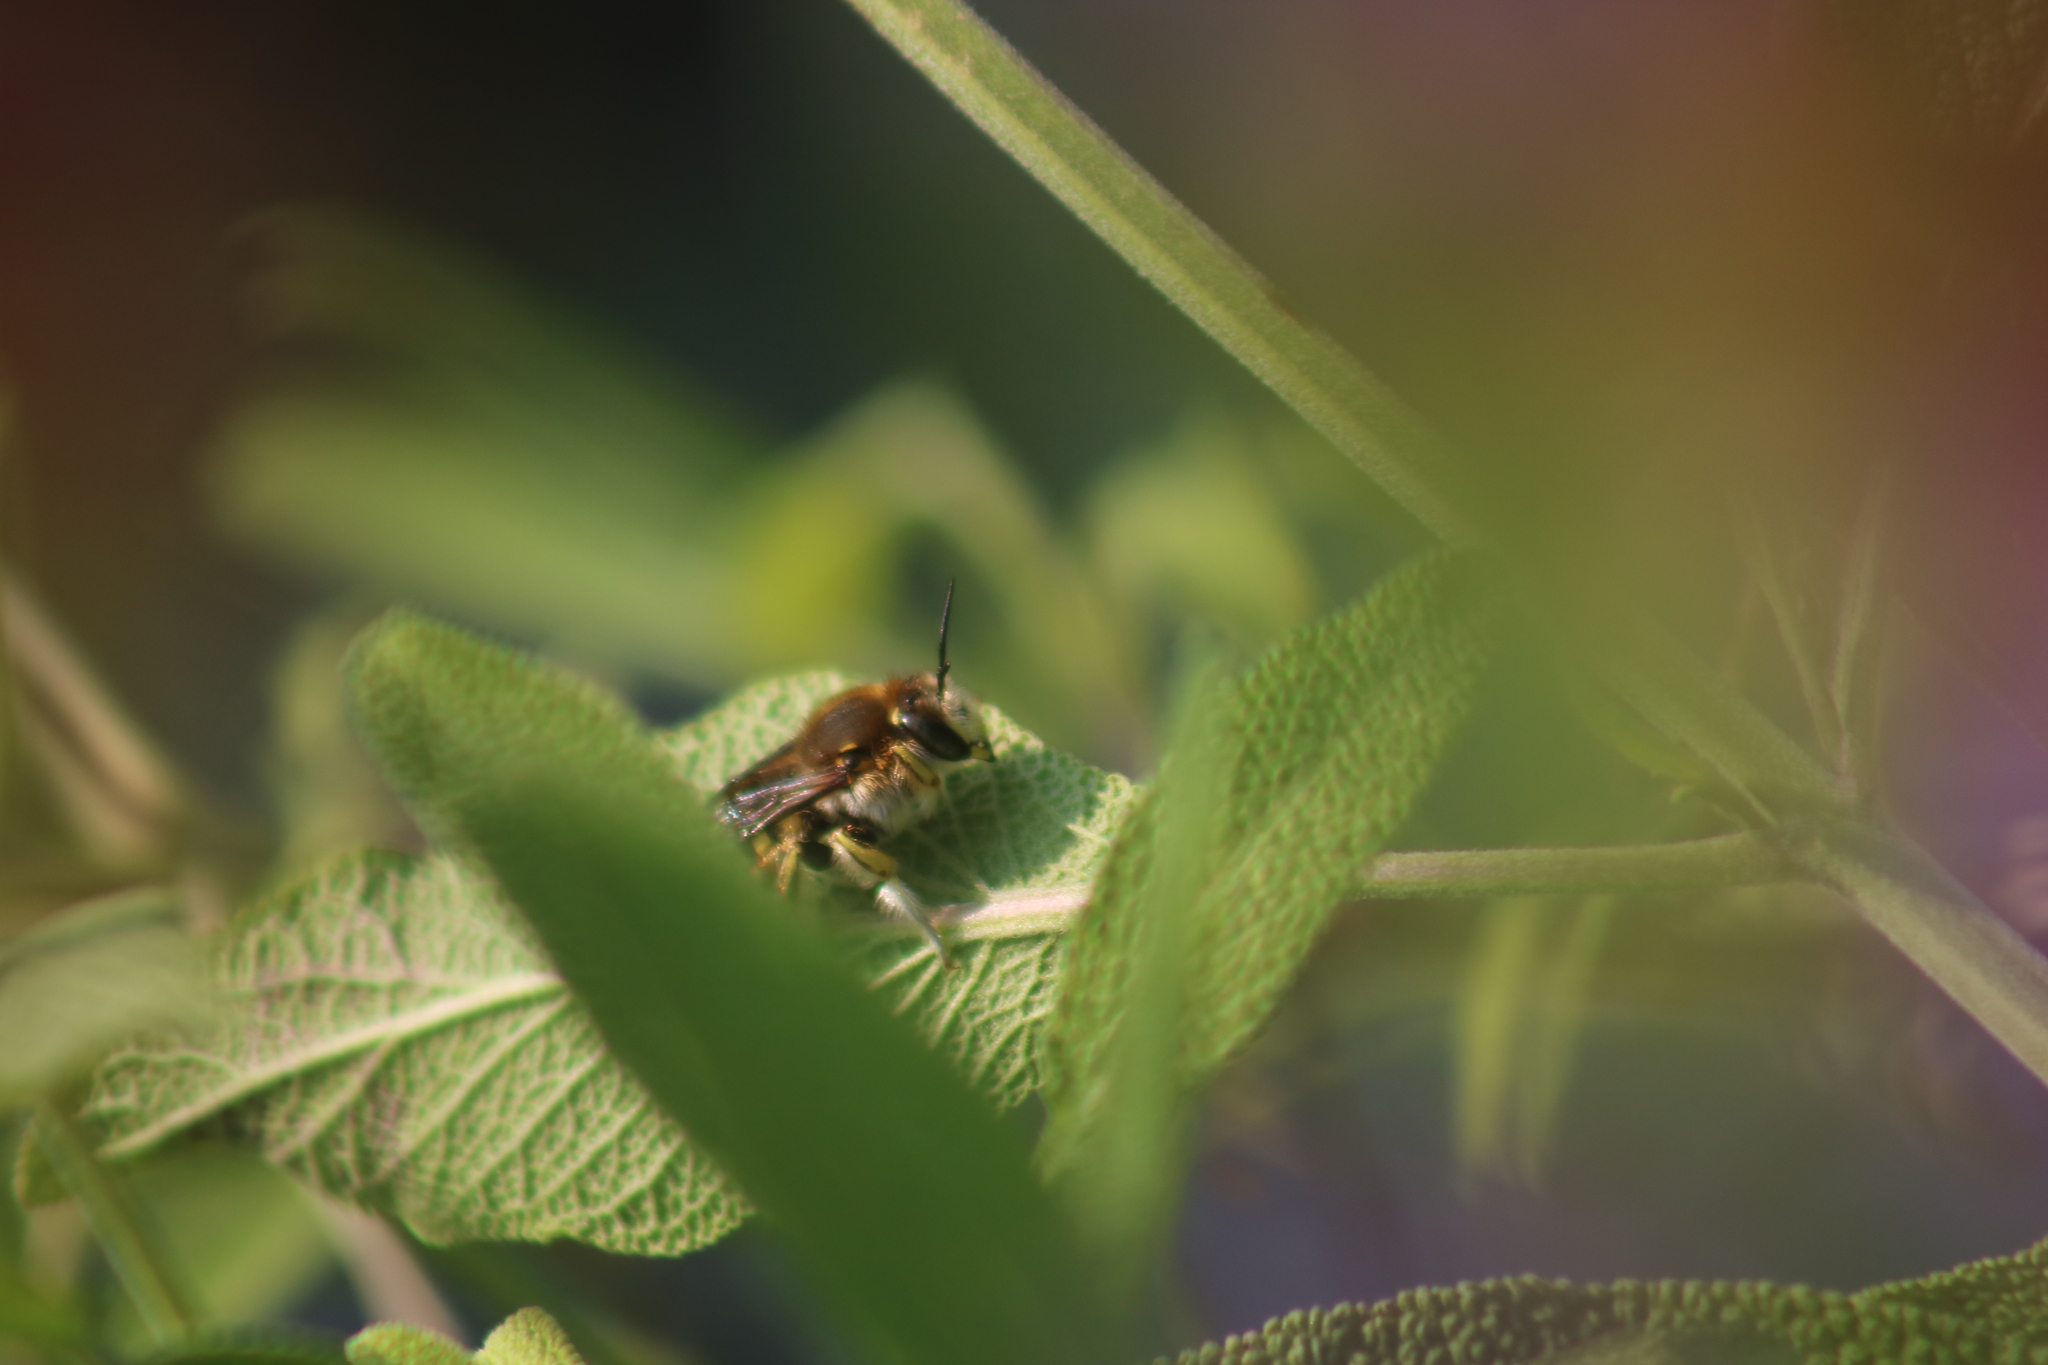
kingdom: Animalia
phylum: Arthropoda
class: Insecta
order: Hymenoptera
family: Megachilidae
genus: Anthidium
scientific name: Anthidium manicatum
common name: Wool carder bee
